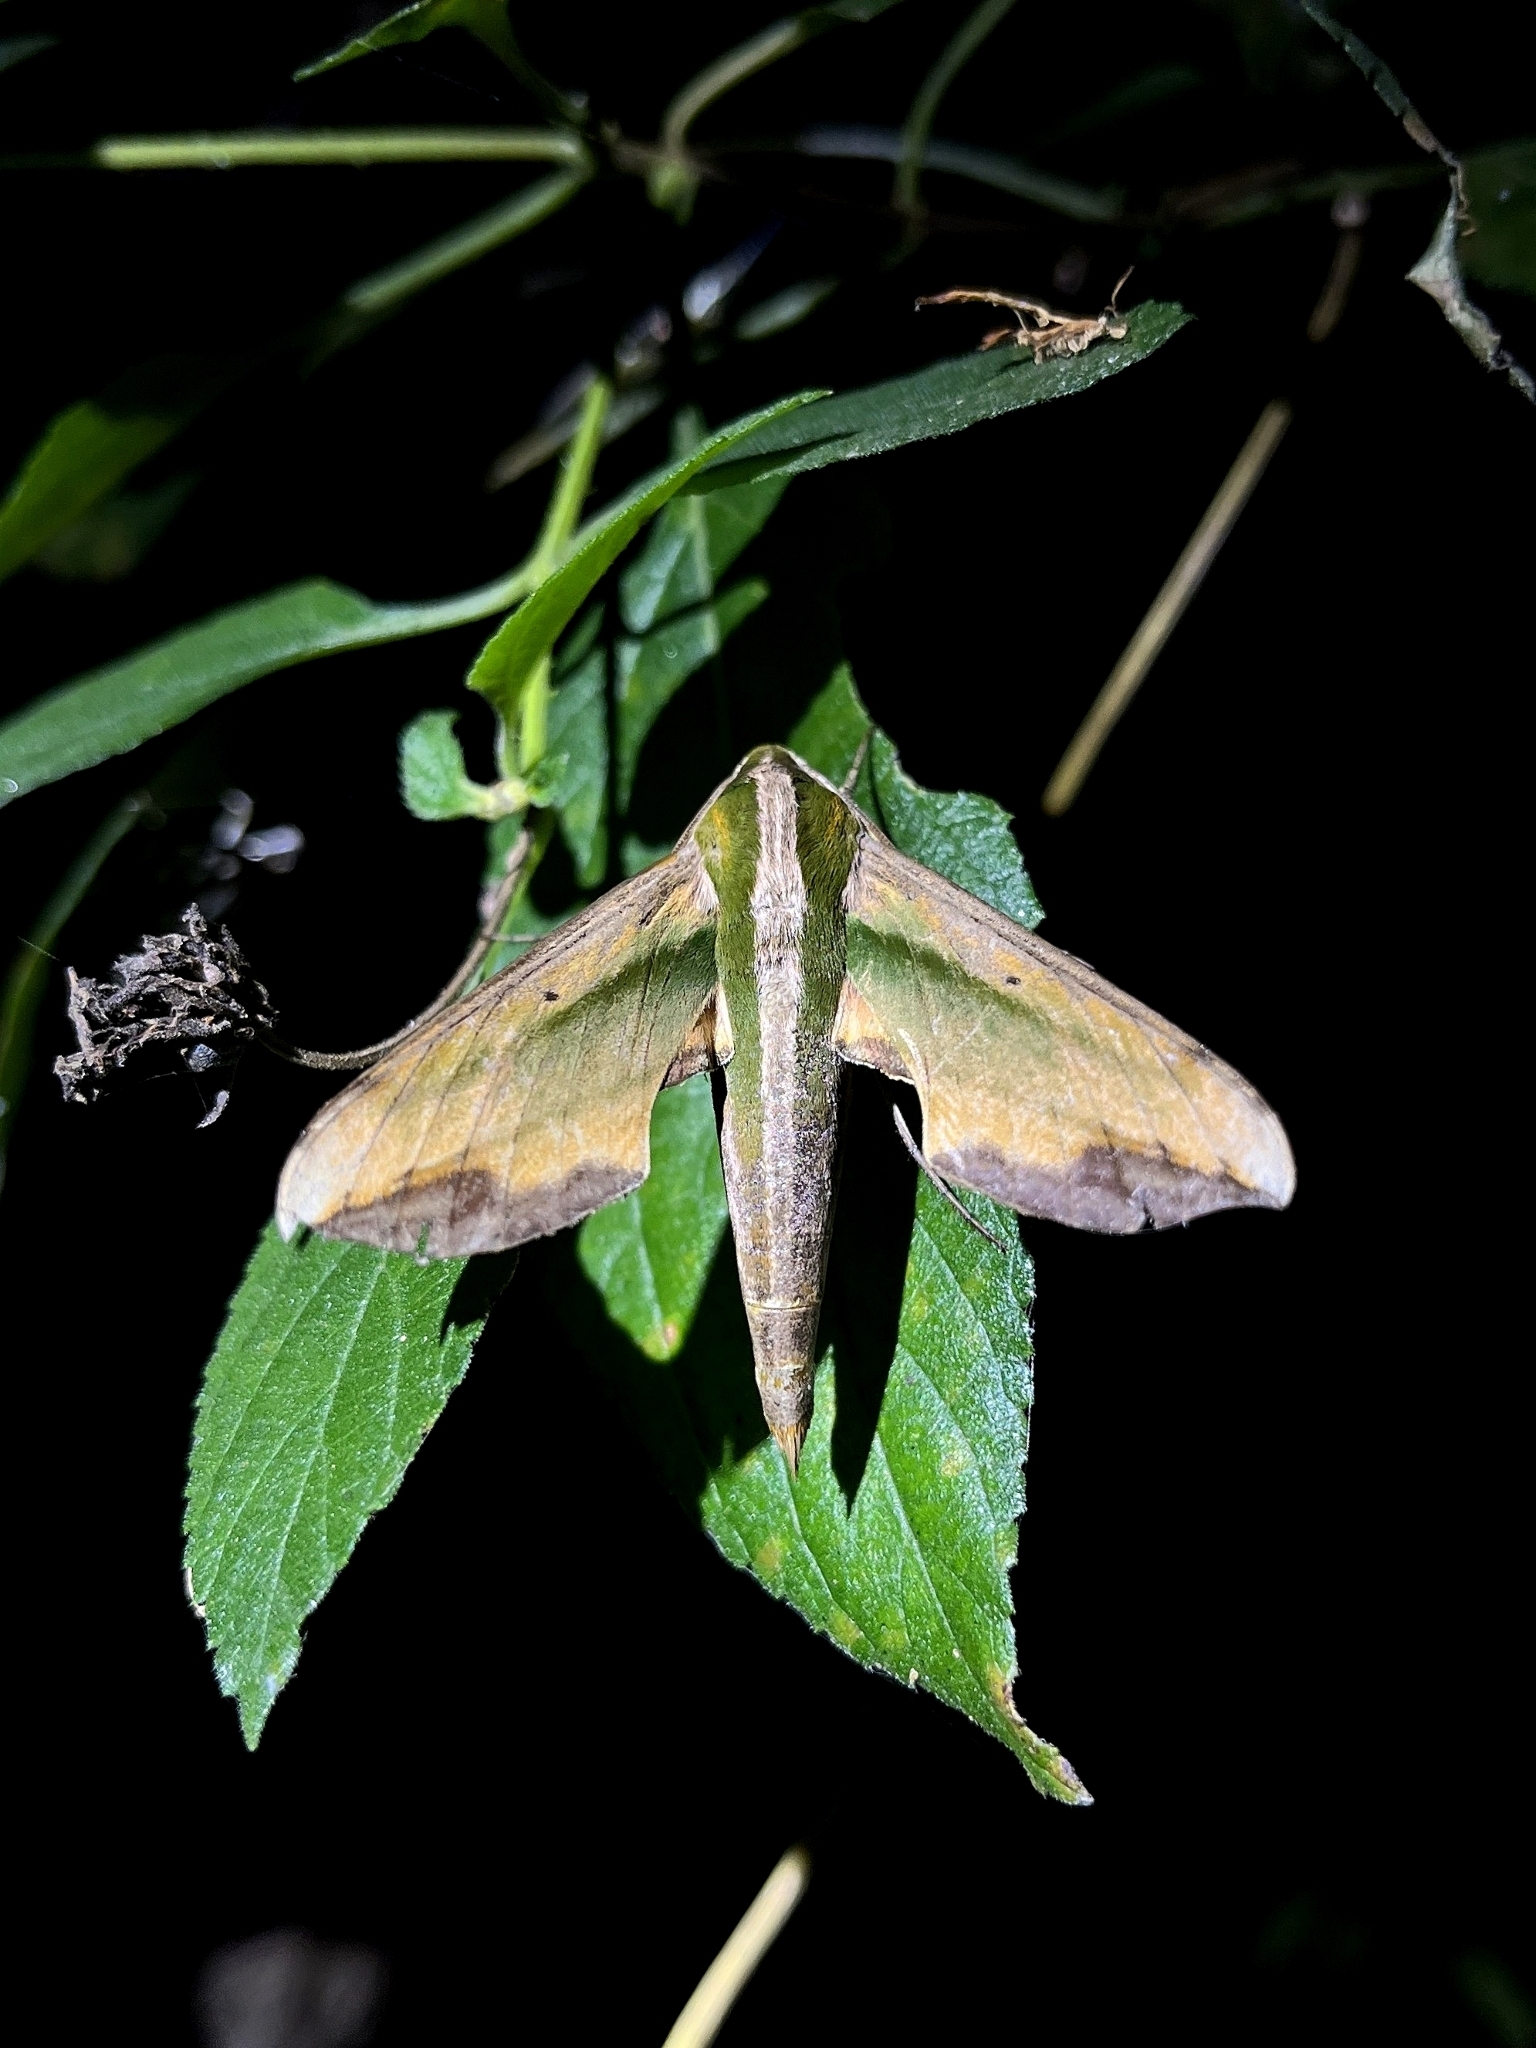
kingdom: Animalia
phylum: Arthropoda
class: Insecta
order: Lepidoptera
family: Sphingidae
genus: Pergesa
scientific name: Pergesa acteus
